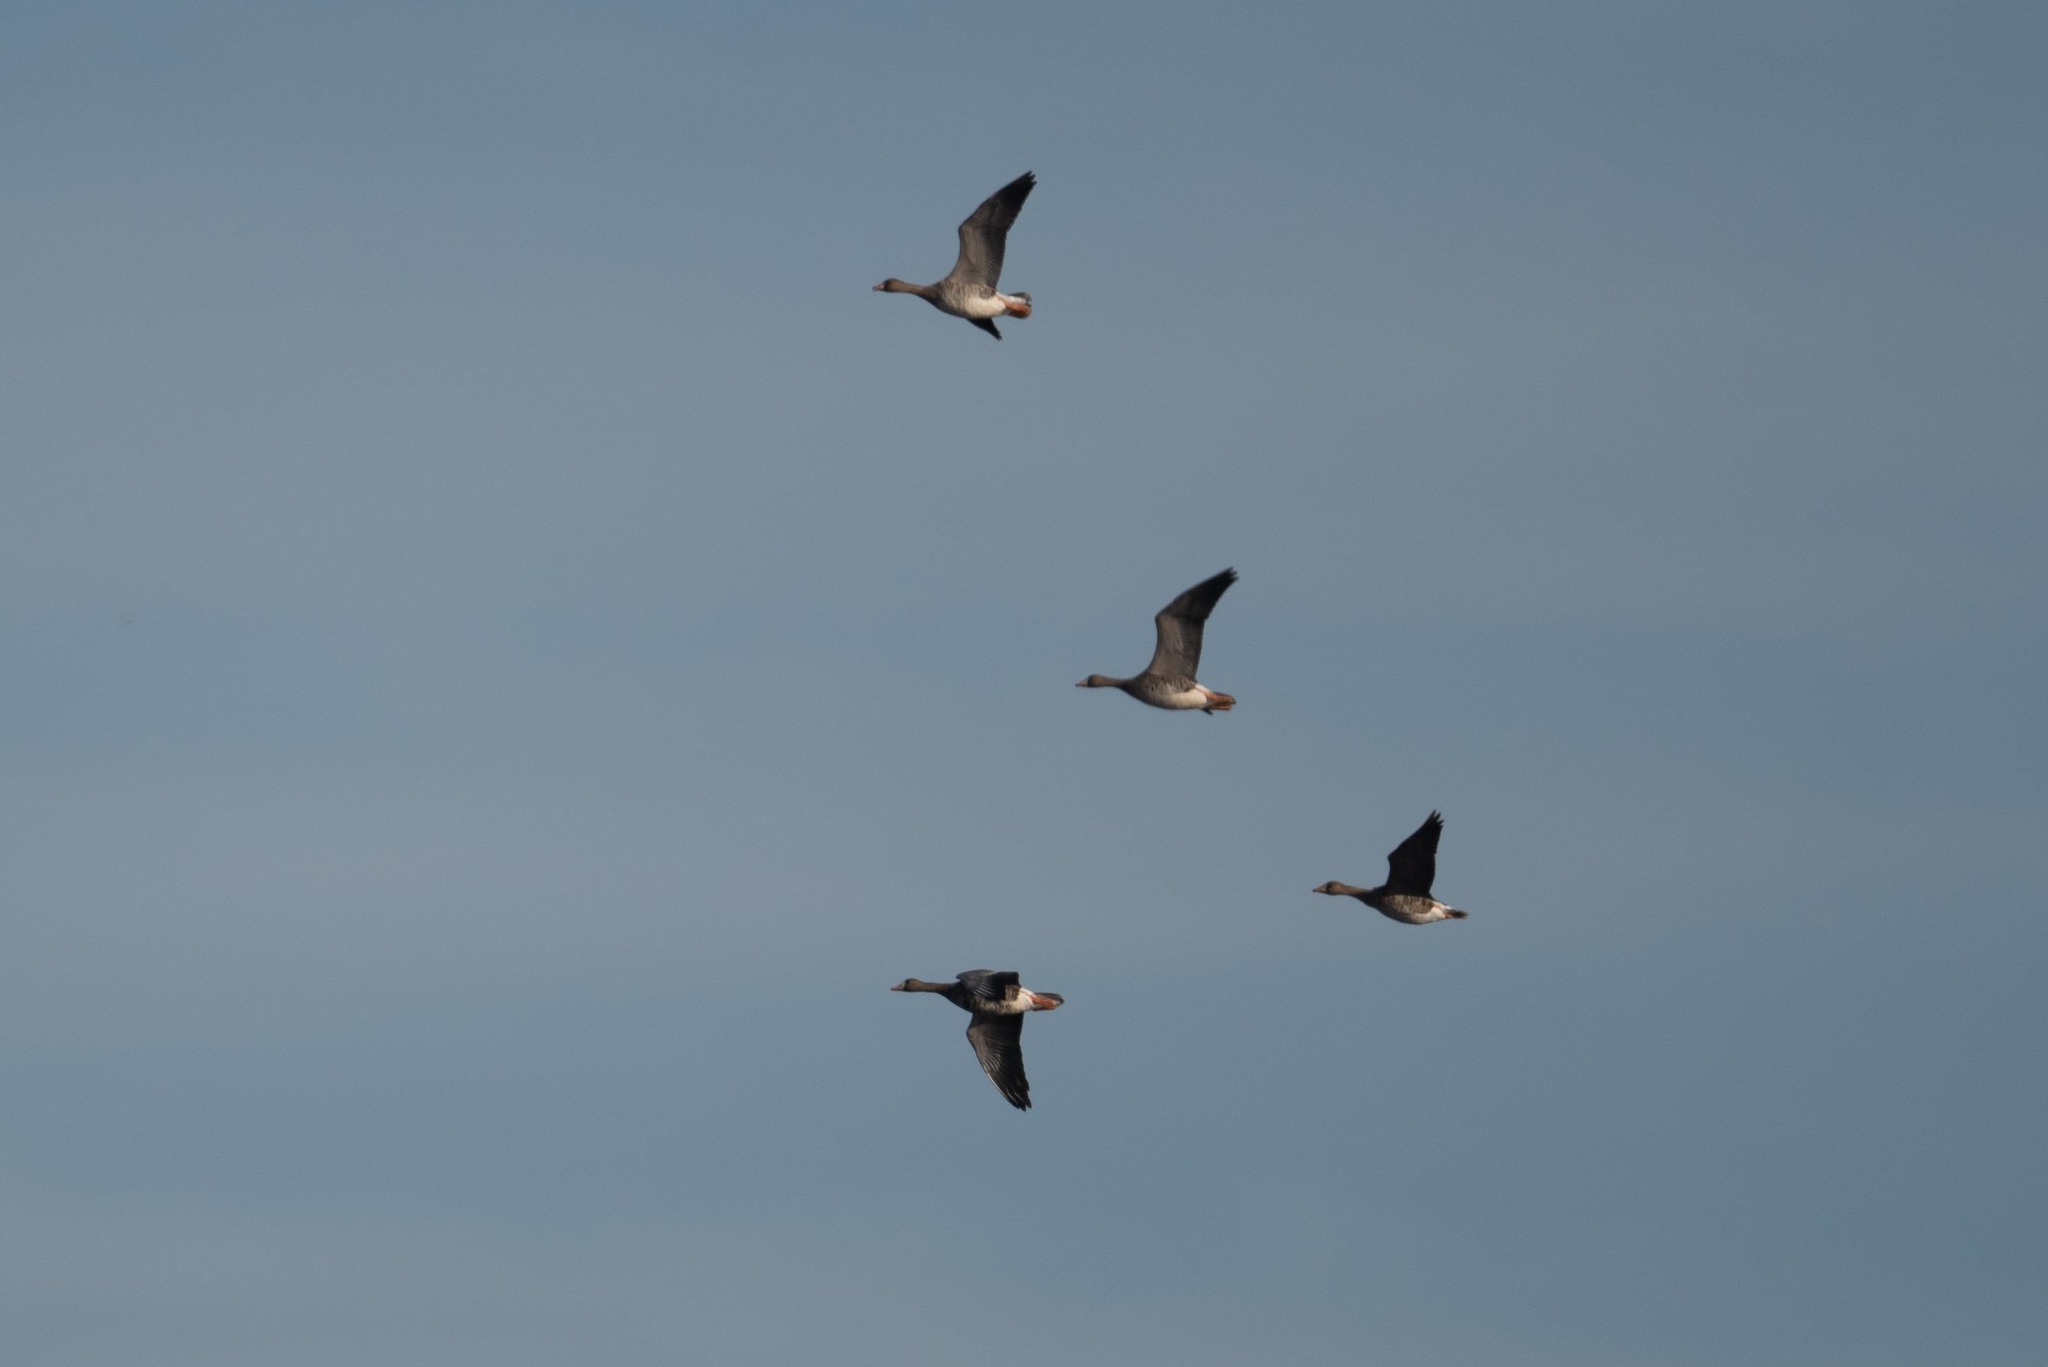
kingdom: Animalia
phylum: Chordata
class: Aves
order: Anseriformes
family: Anatidae
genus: Anser
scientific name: Anser albifrons
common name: Greater white-fronted goose
